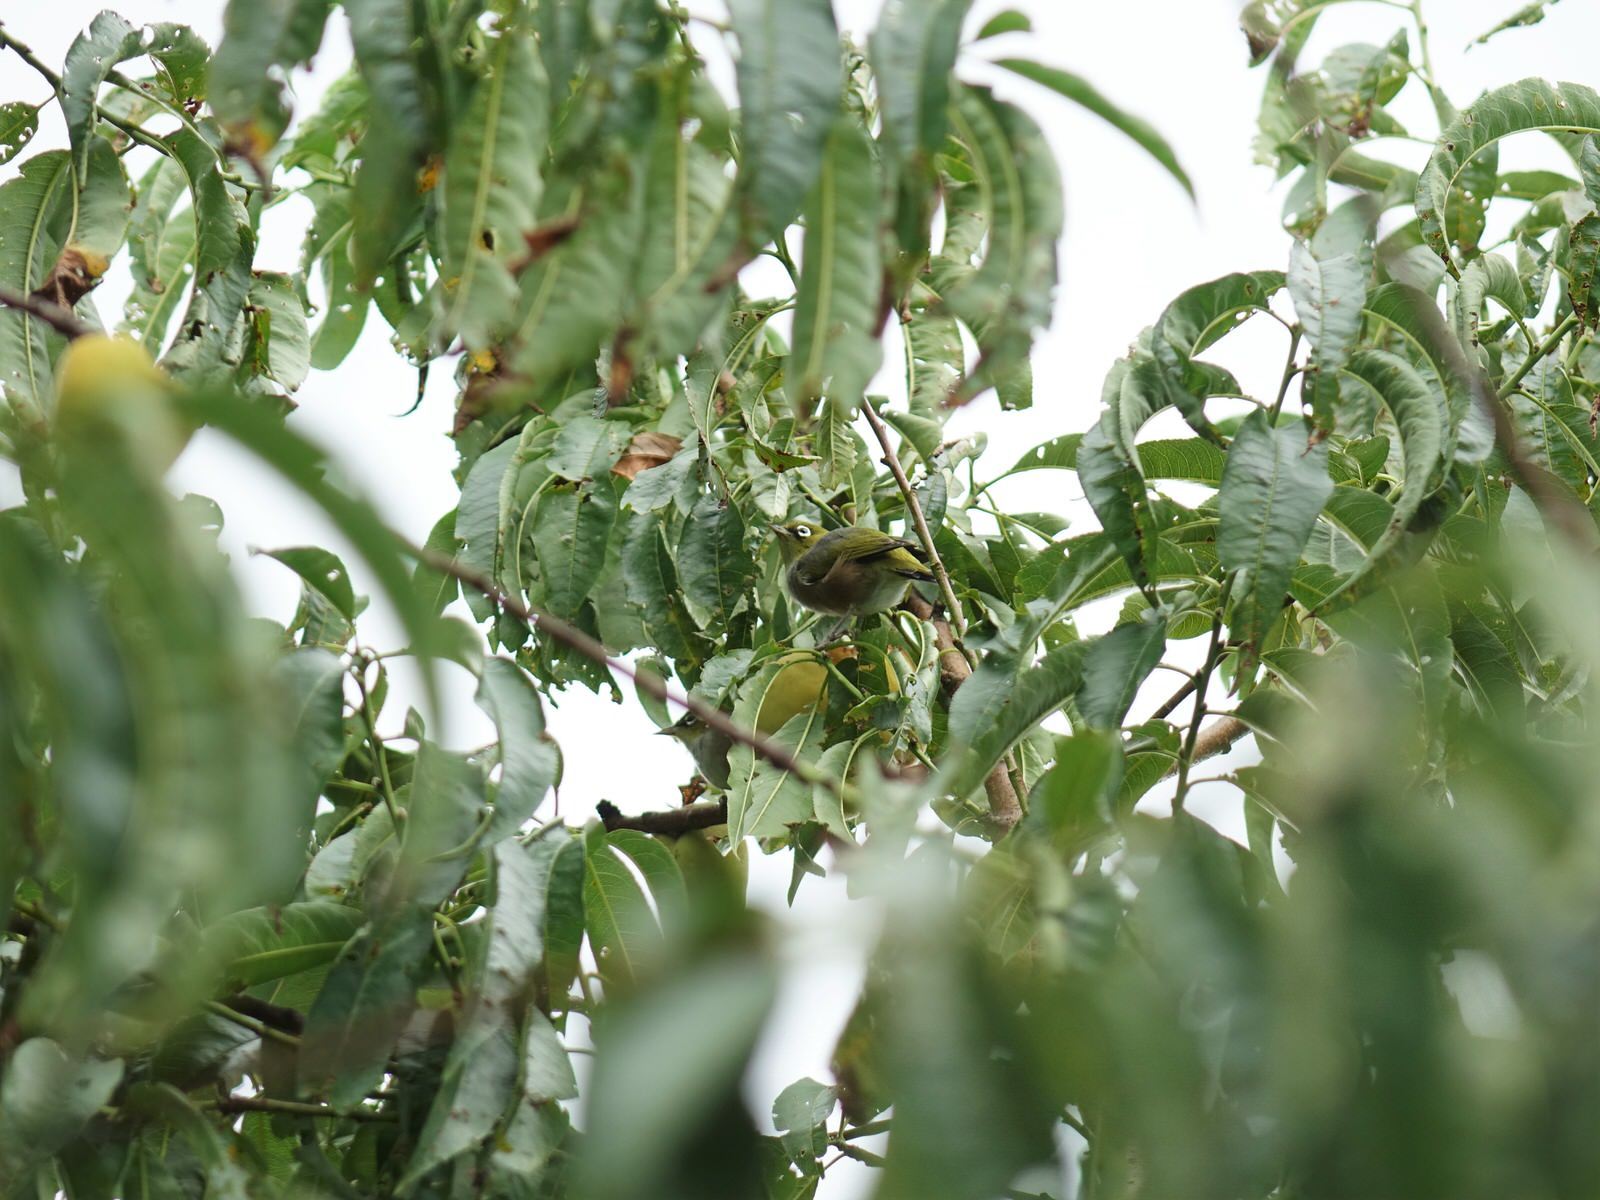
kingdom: Animalia
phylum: Chordata
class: Aves
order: Passeriformes
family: Zosteropidae
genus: Zosterops
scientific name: Zosterops lateralis
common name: Silvereye
